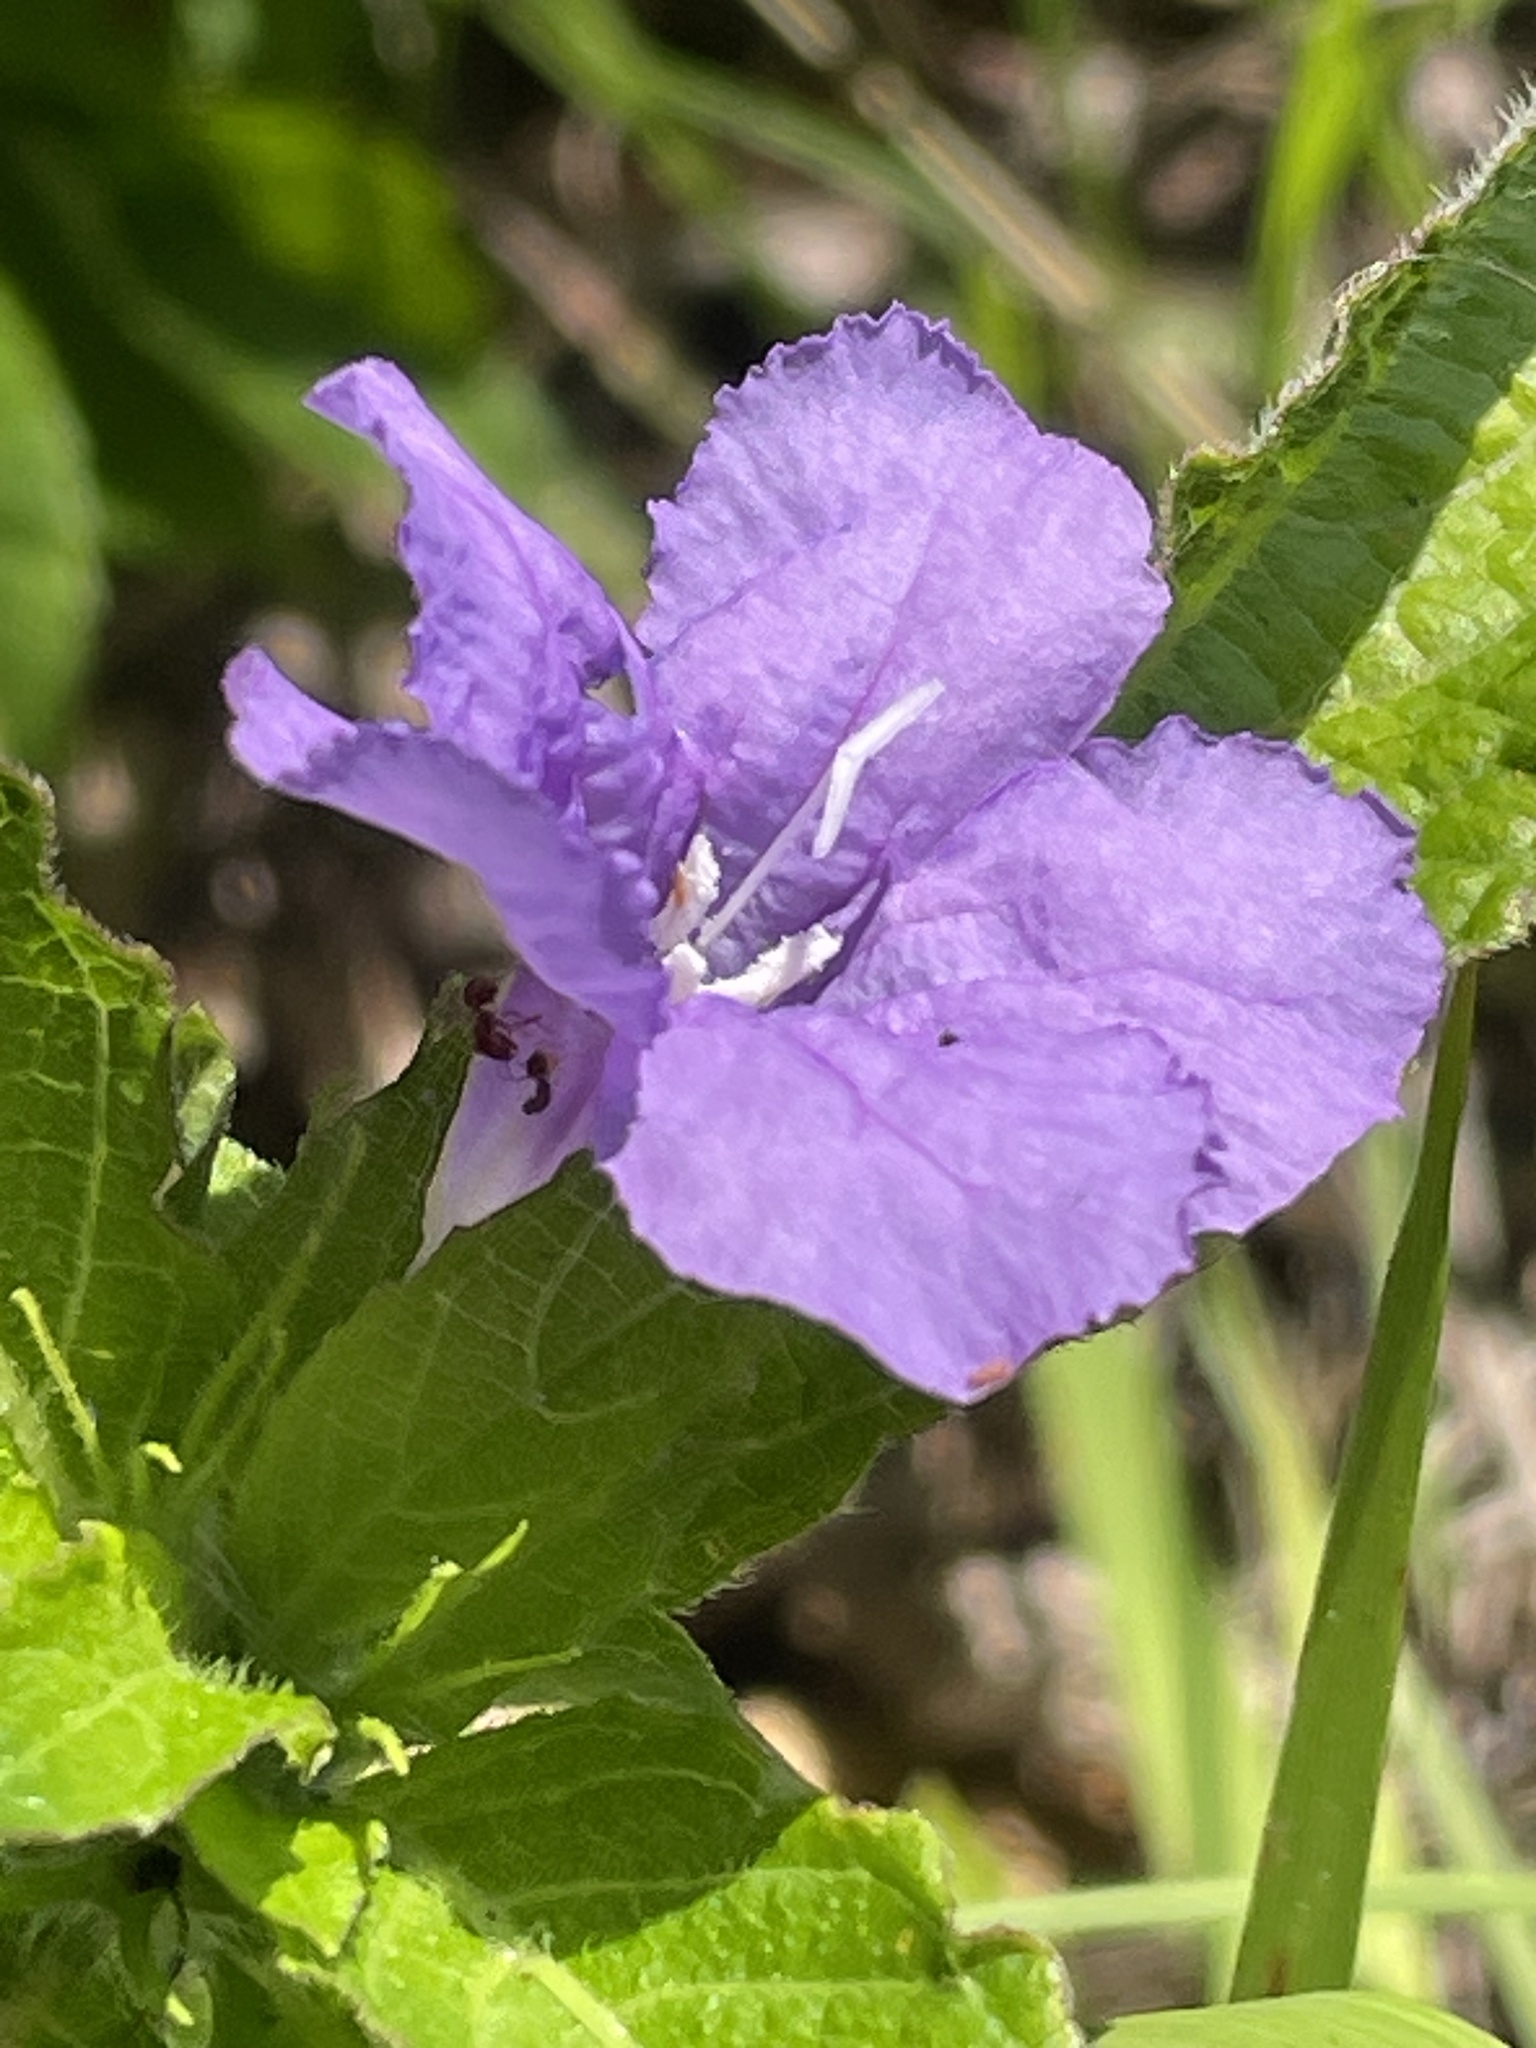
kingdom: Plantae
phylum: Tracheophyta
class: Magnoliopsida
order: Lamiales
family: Acanthaceae
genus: Ruellia
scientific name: Ruellia caroliniensis
